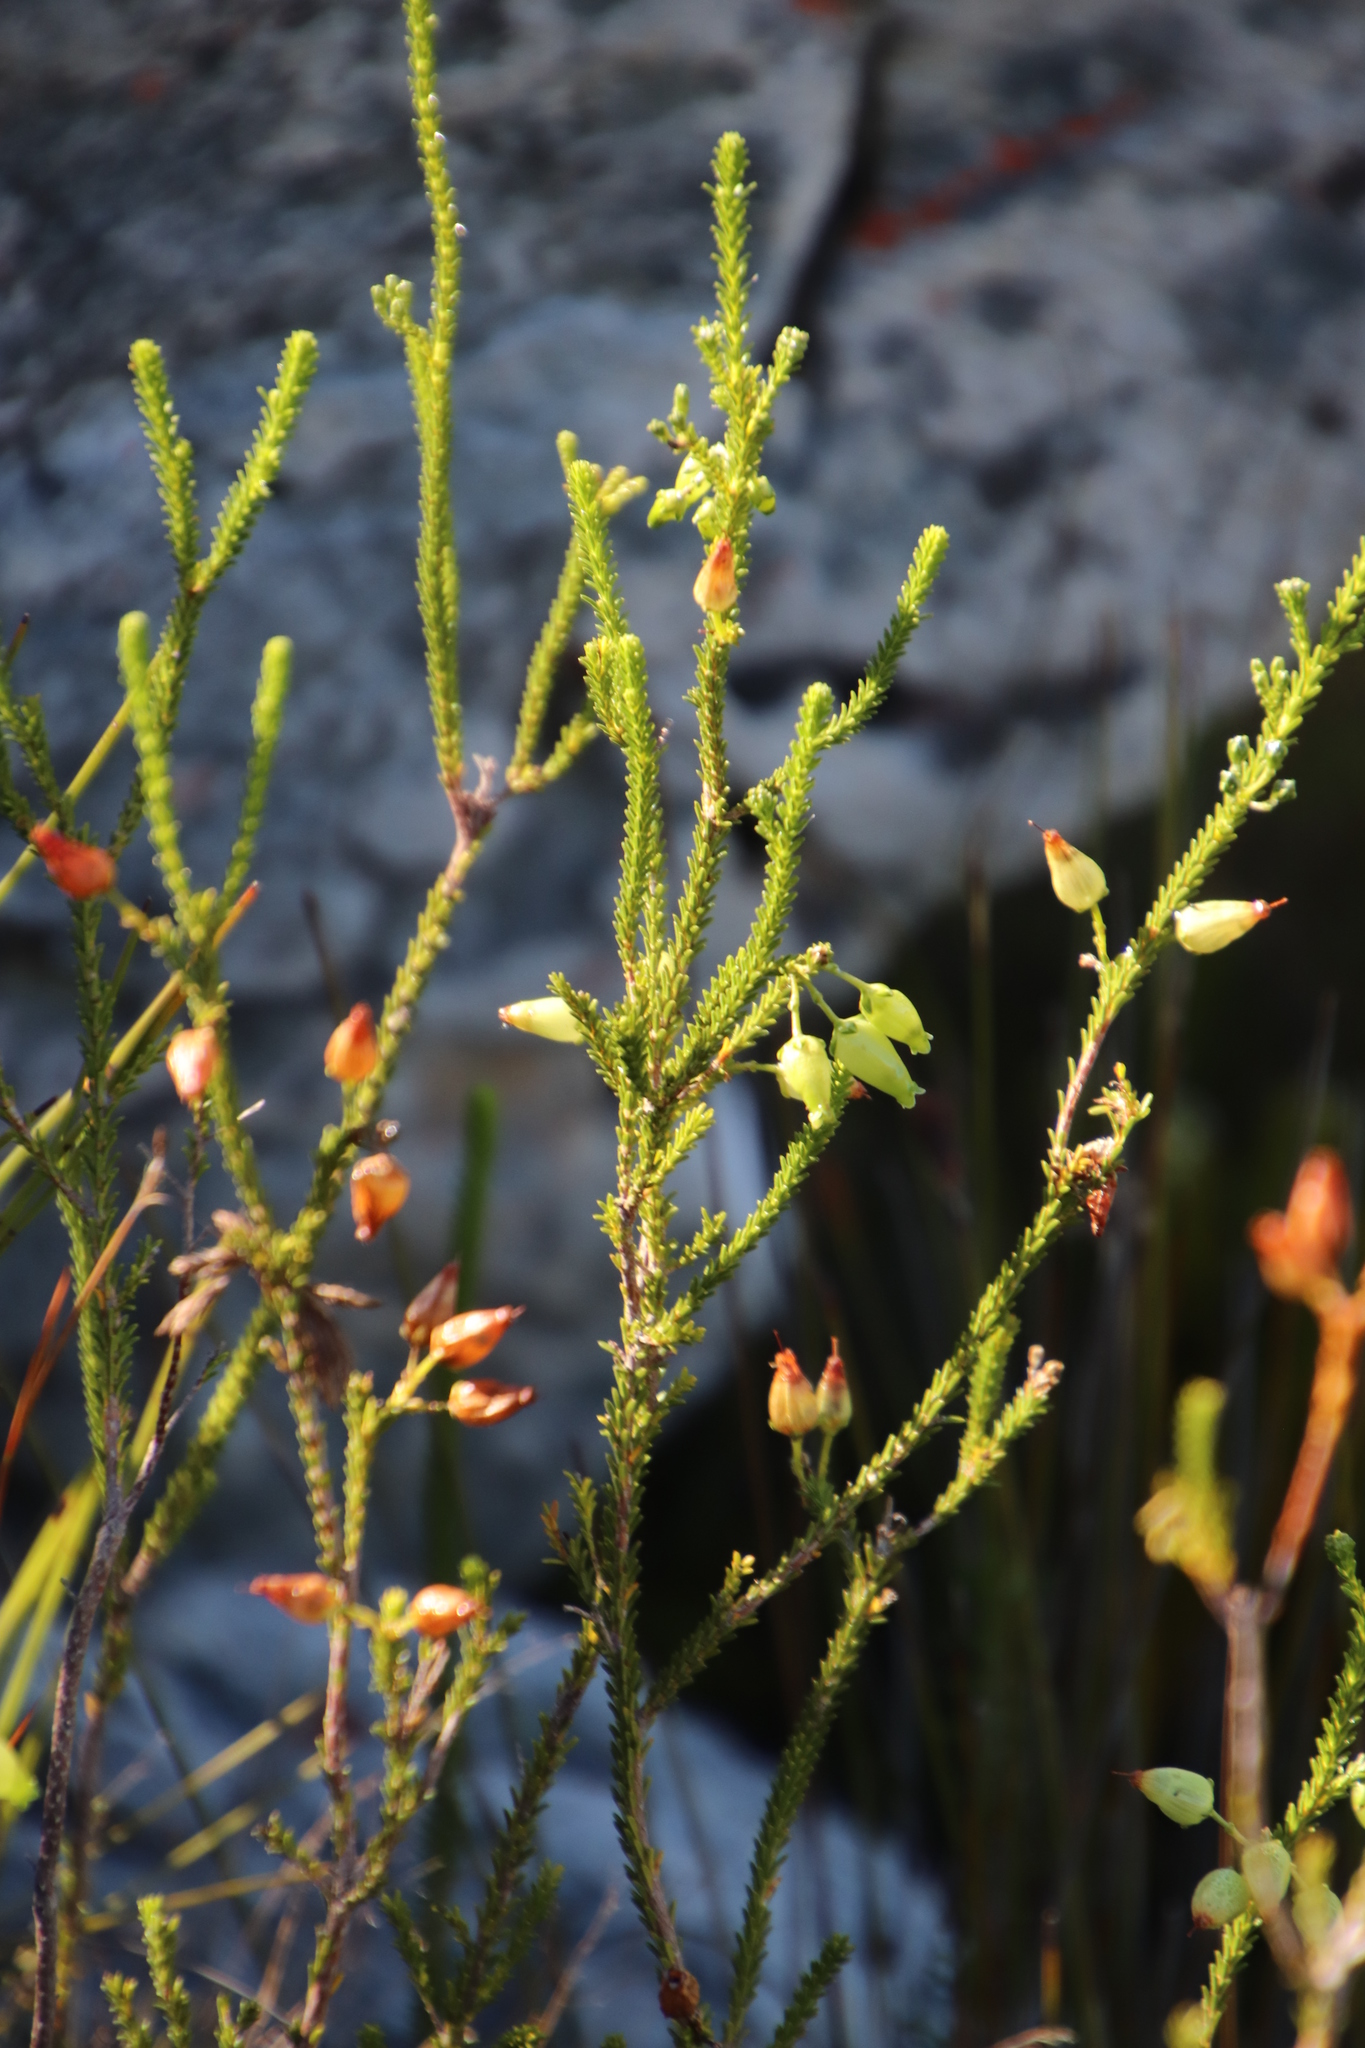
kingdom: Plantae
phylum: Tracheophyta
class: Magnoliopsida
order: Ericales
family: Ericaceae
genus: Erica
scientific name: Erica urna-viridis
